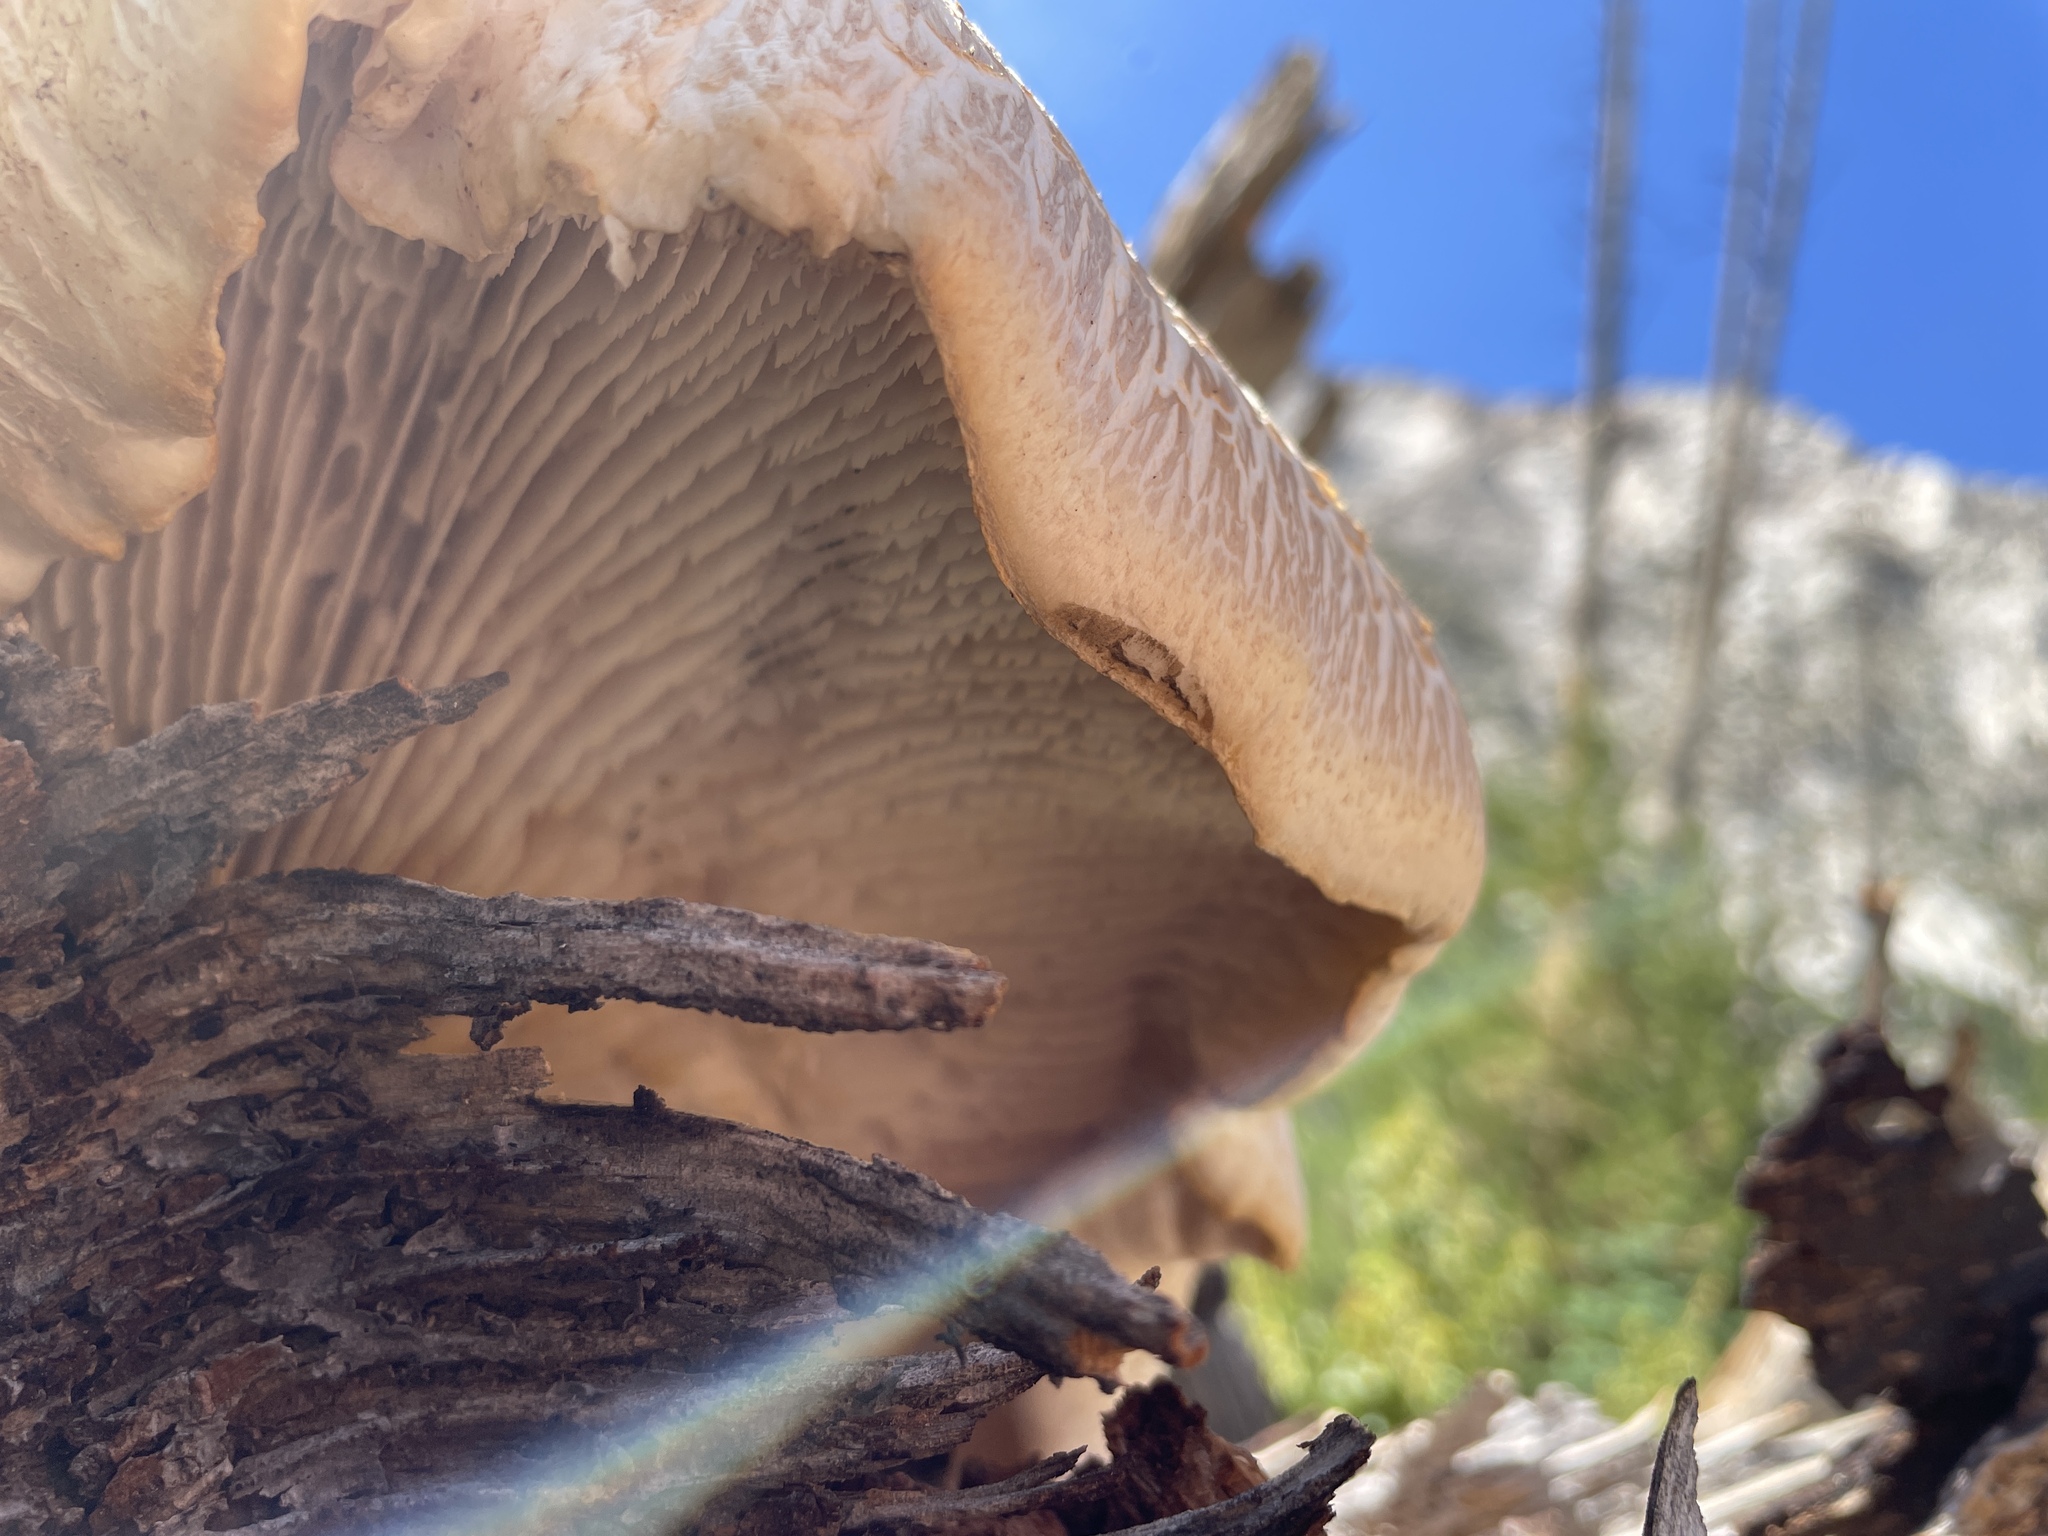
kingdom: Fungi
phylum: Basidiomycota
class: Agaricomycetes
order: Gloeophyllales
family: Gloeophyllaceae
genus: Neolentinus
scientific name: Neolentinus ponderosus
